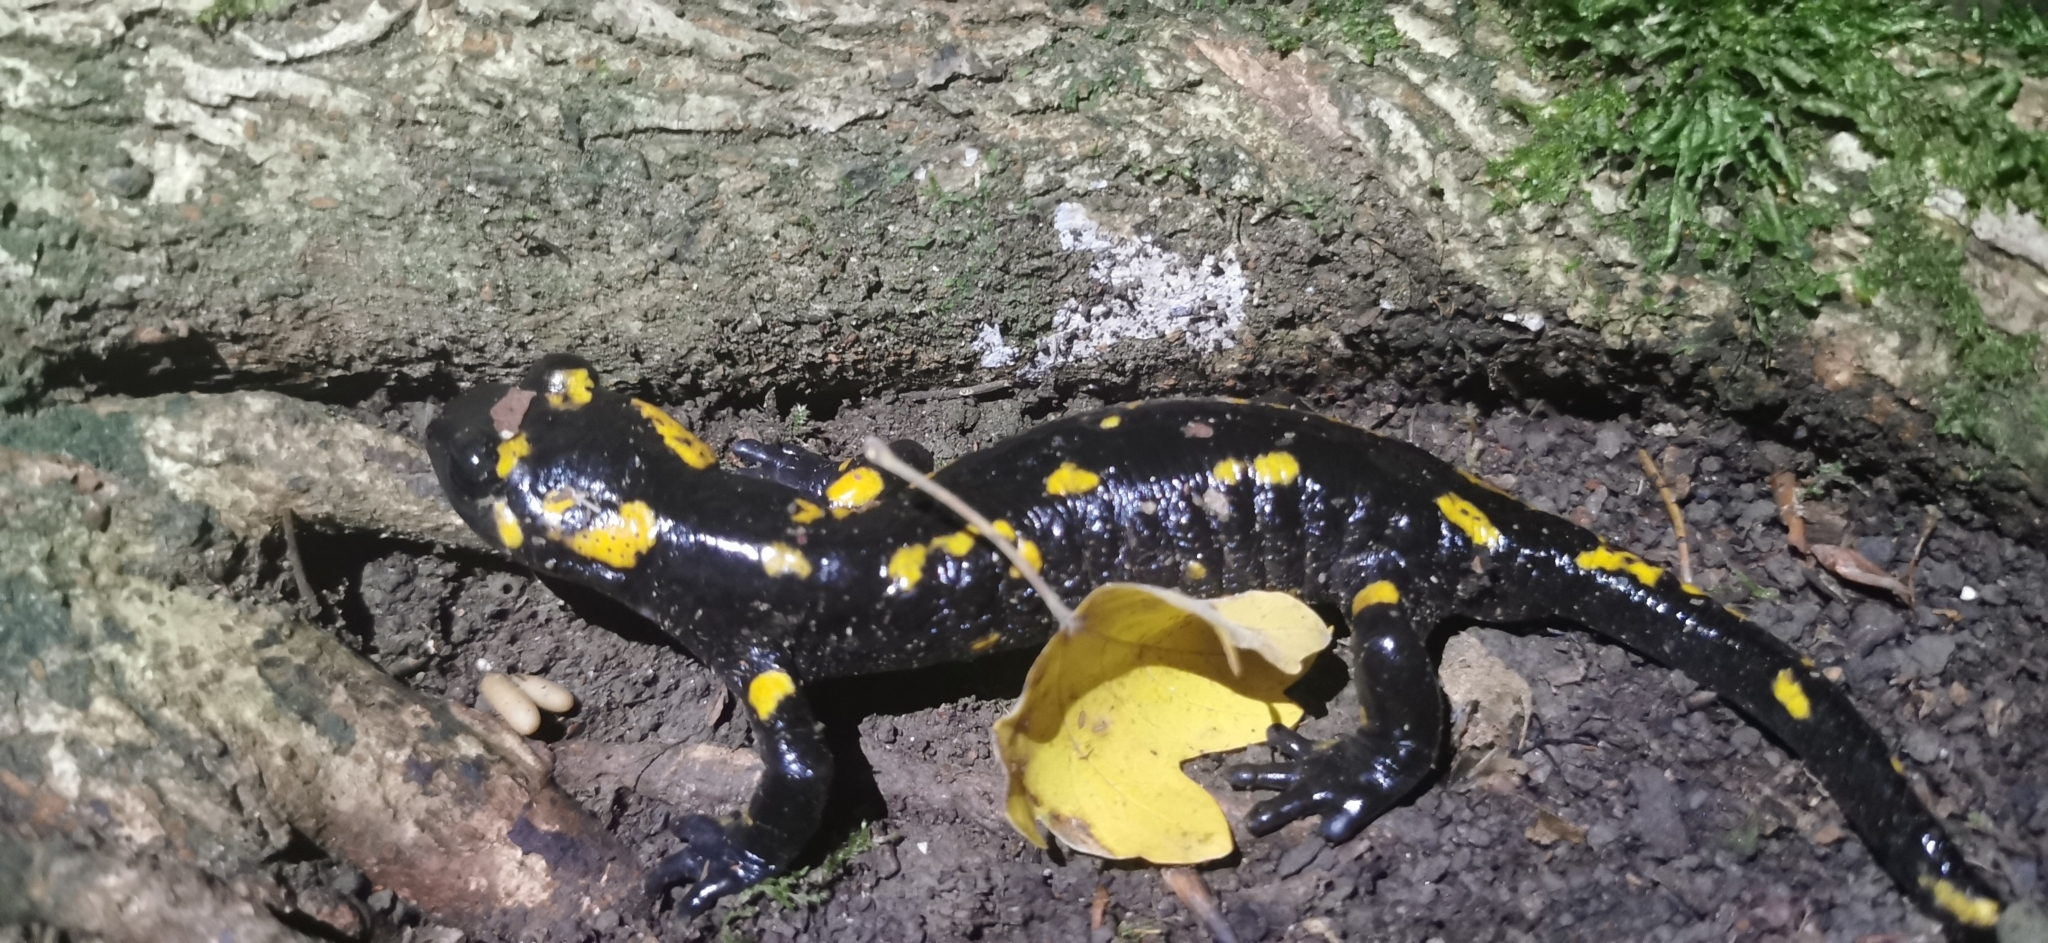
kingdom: Animalia
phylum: Chordata
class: Amphibia
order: Caudata
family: Salamandridae
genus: Salamandra
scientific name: Salamandra salamandra
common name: Fire salamander
